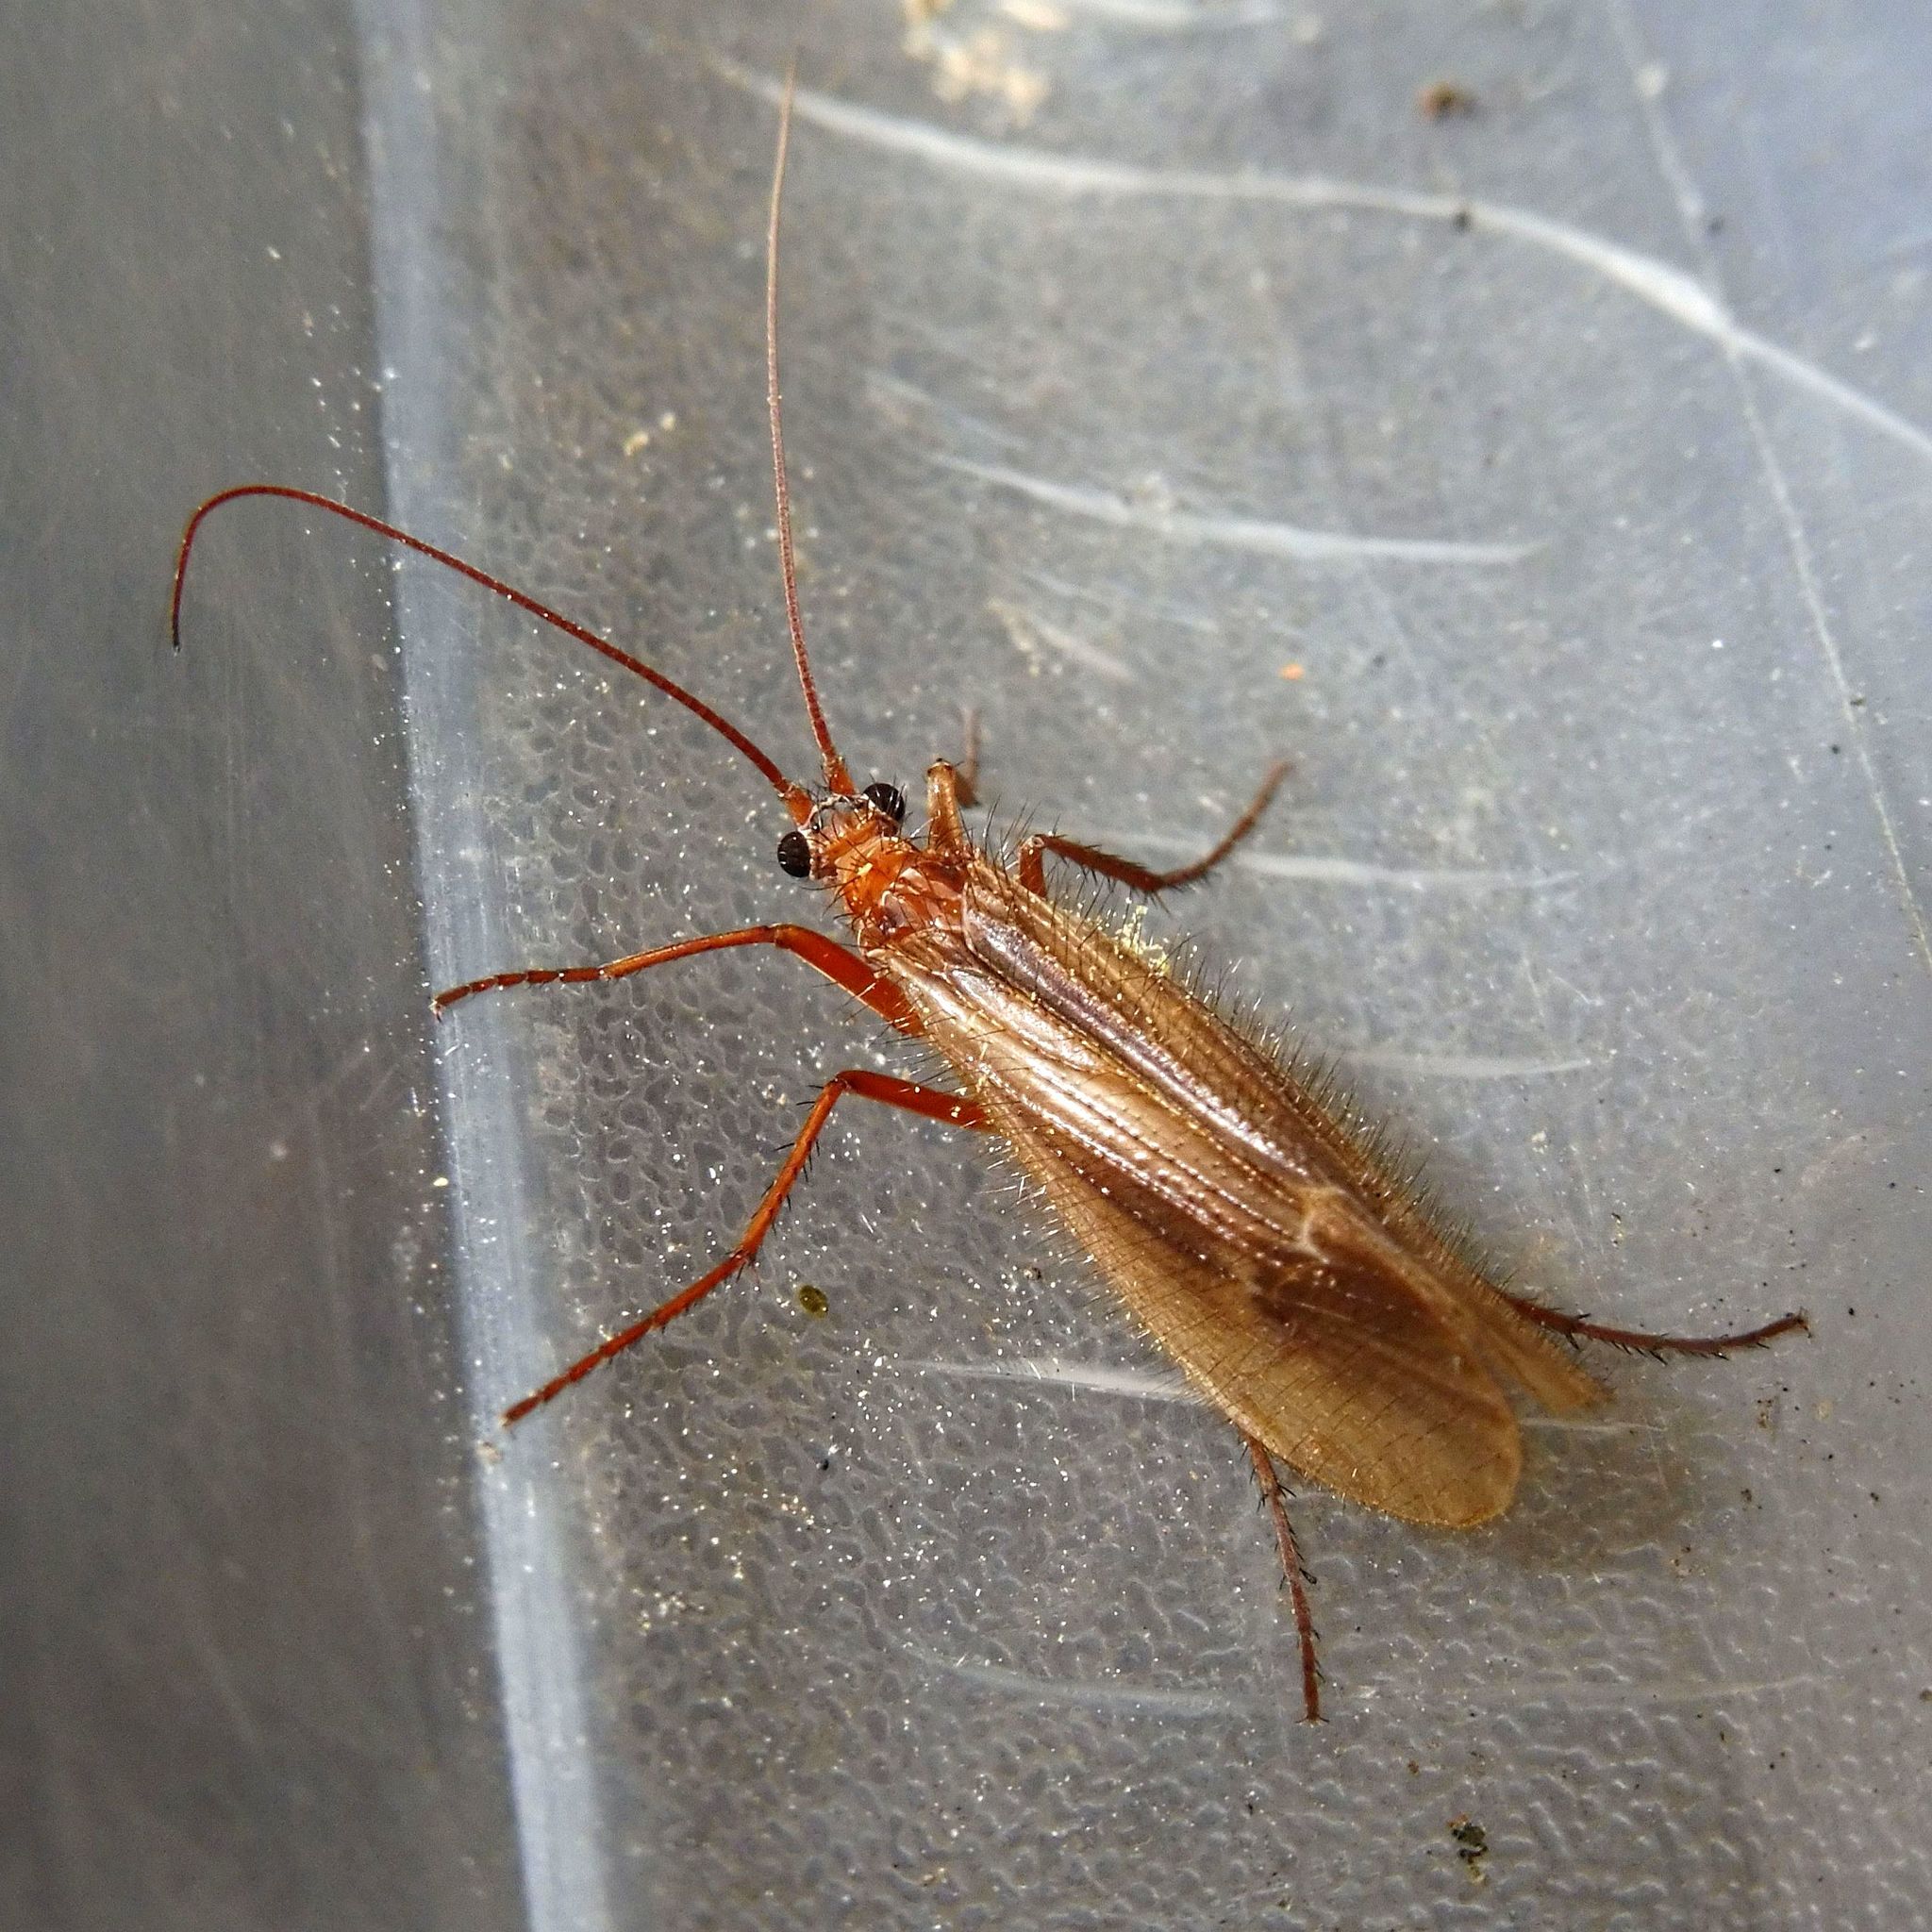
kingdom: Animalia
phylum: Arthropoda
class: Insecta
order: Trichoptera
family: Limnephilidae
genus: Chaetopteryx
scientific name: Chaetopteryx villosa
